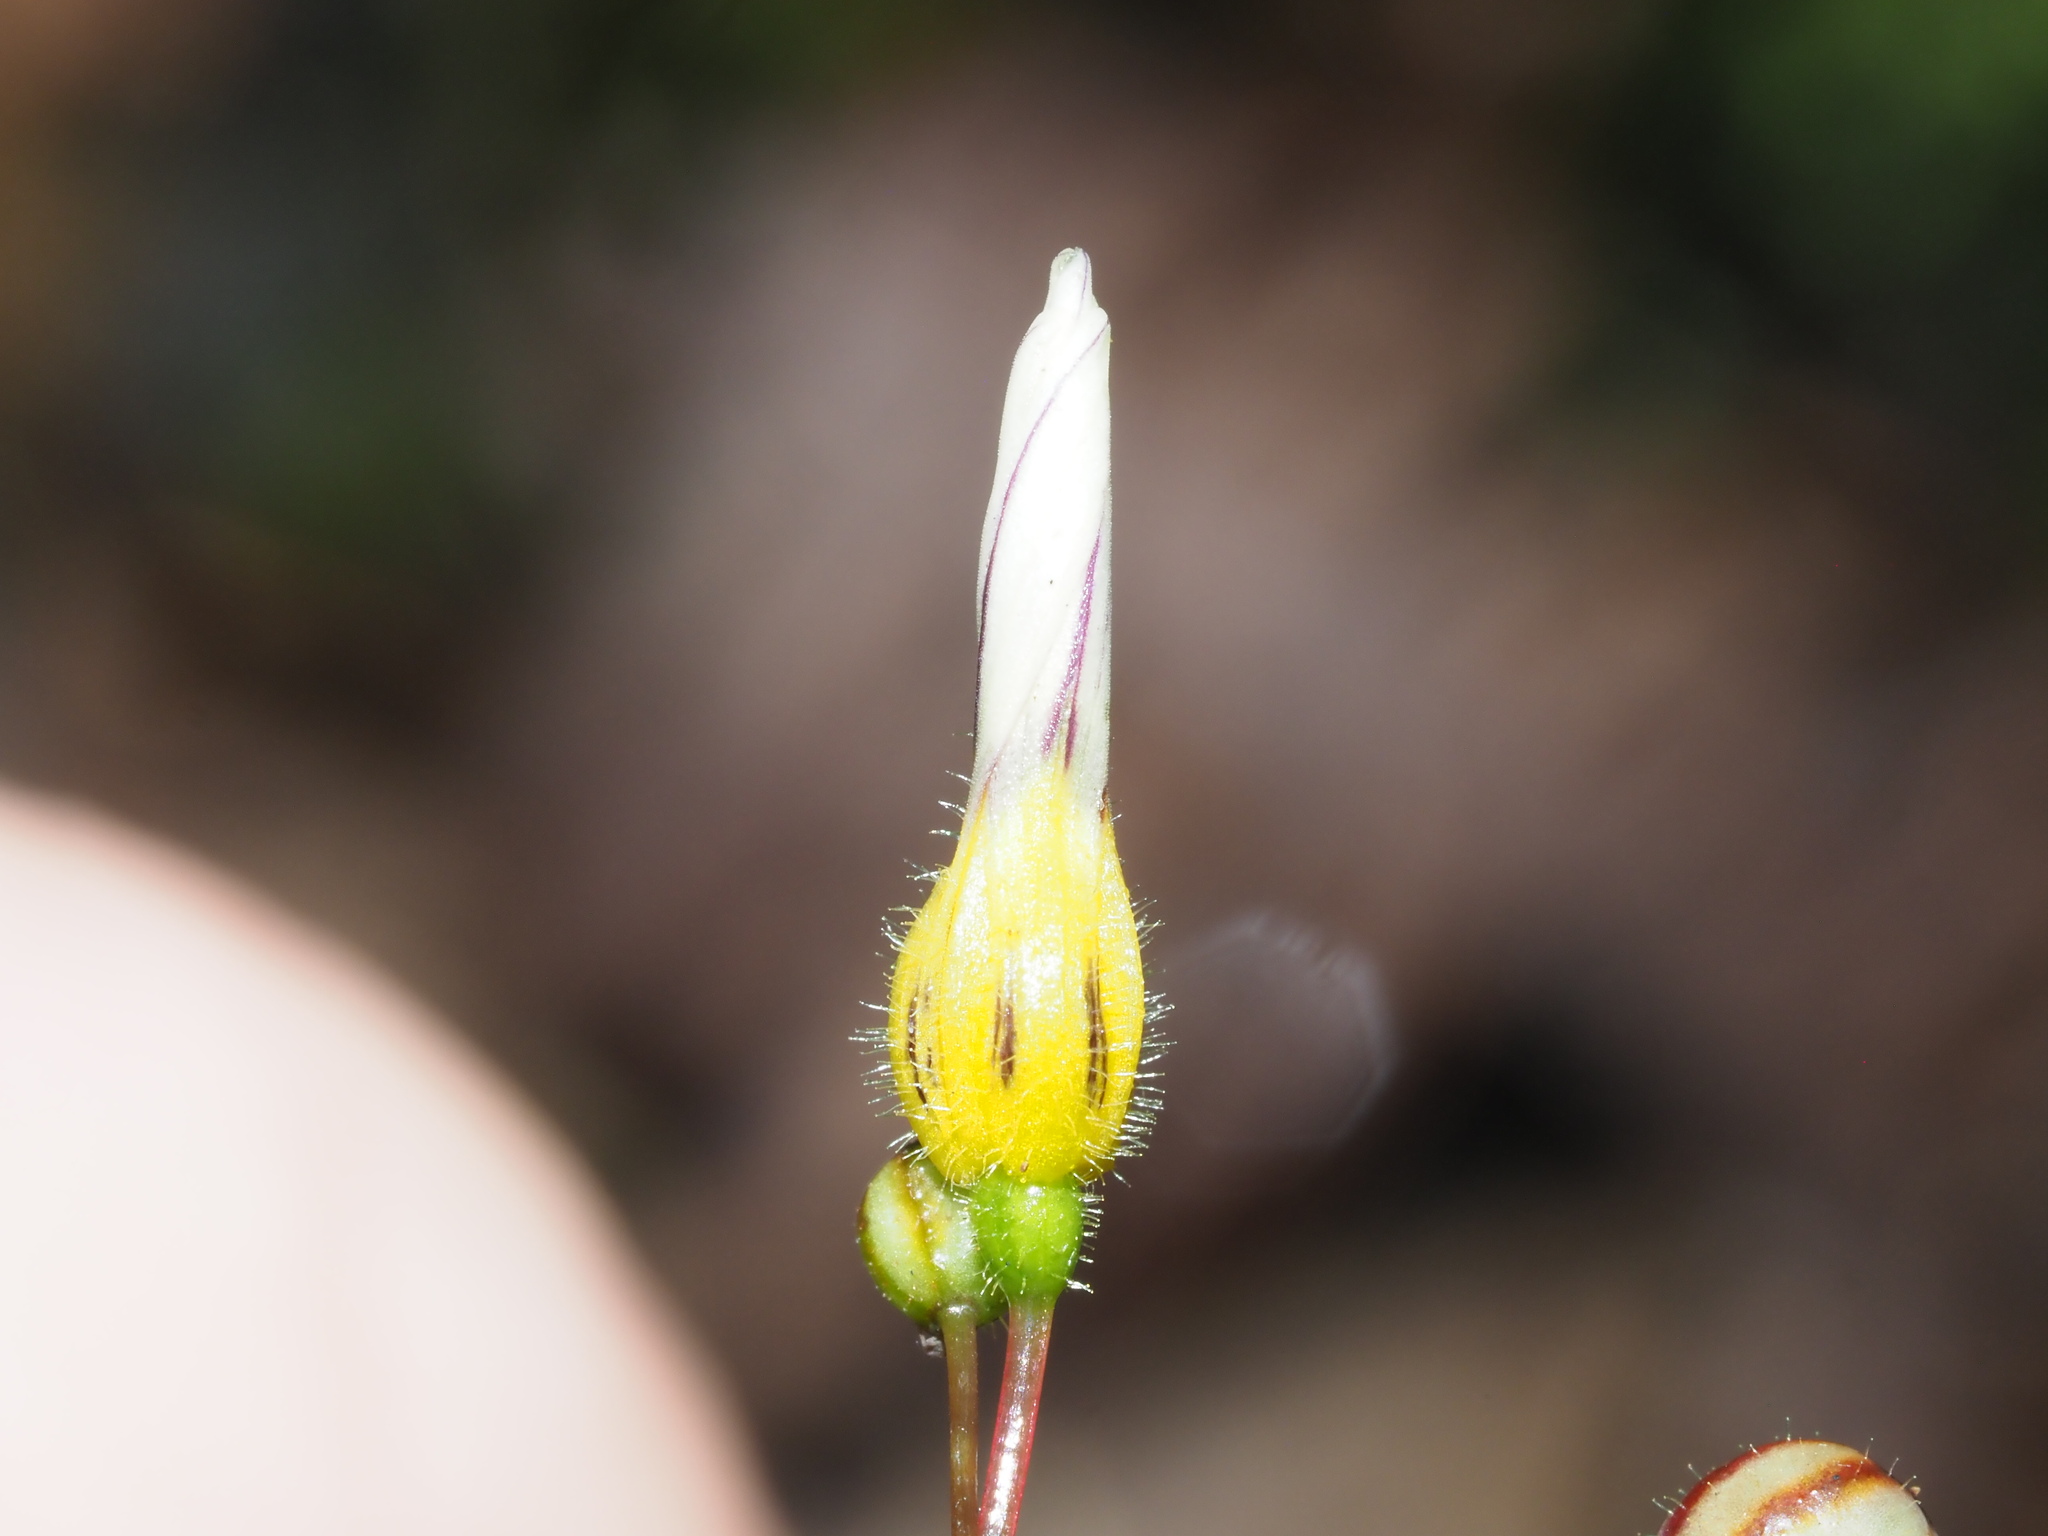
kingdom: Plantae
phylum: Tracheophyta
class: Liliopsida
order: Asparagales
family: Iridaceae
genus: Sisyrinchium
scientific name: Sisyrinchium micranthum
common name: Bermuda pigroot
